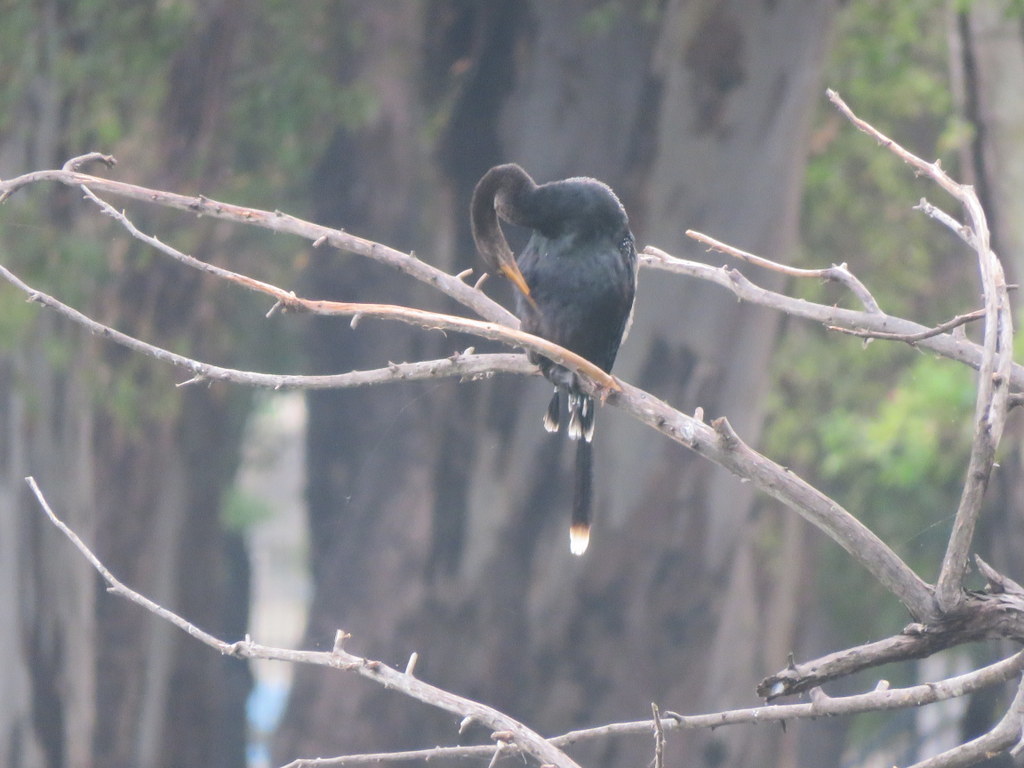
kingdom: Animalia
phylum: Chordata
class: Aves
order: Suliformes
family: Anhingidae
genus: Anhinga
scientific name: Anhinga anhinga
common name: Anhinga
